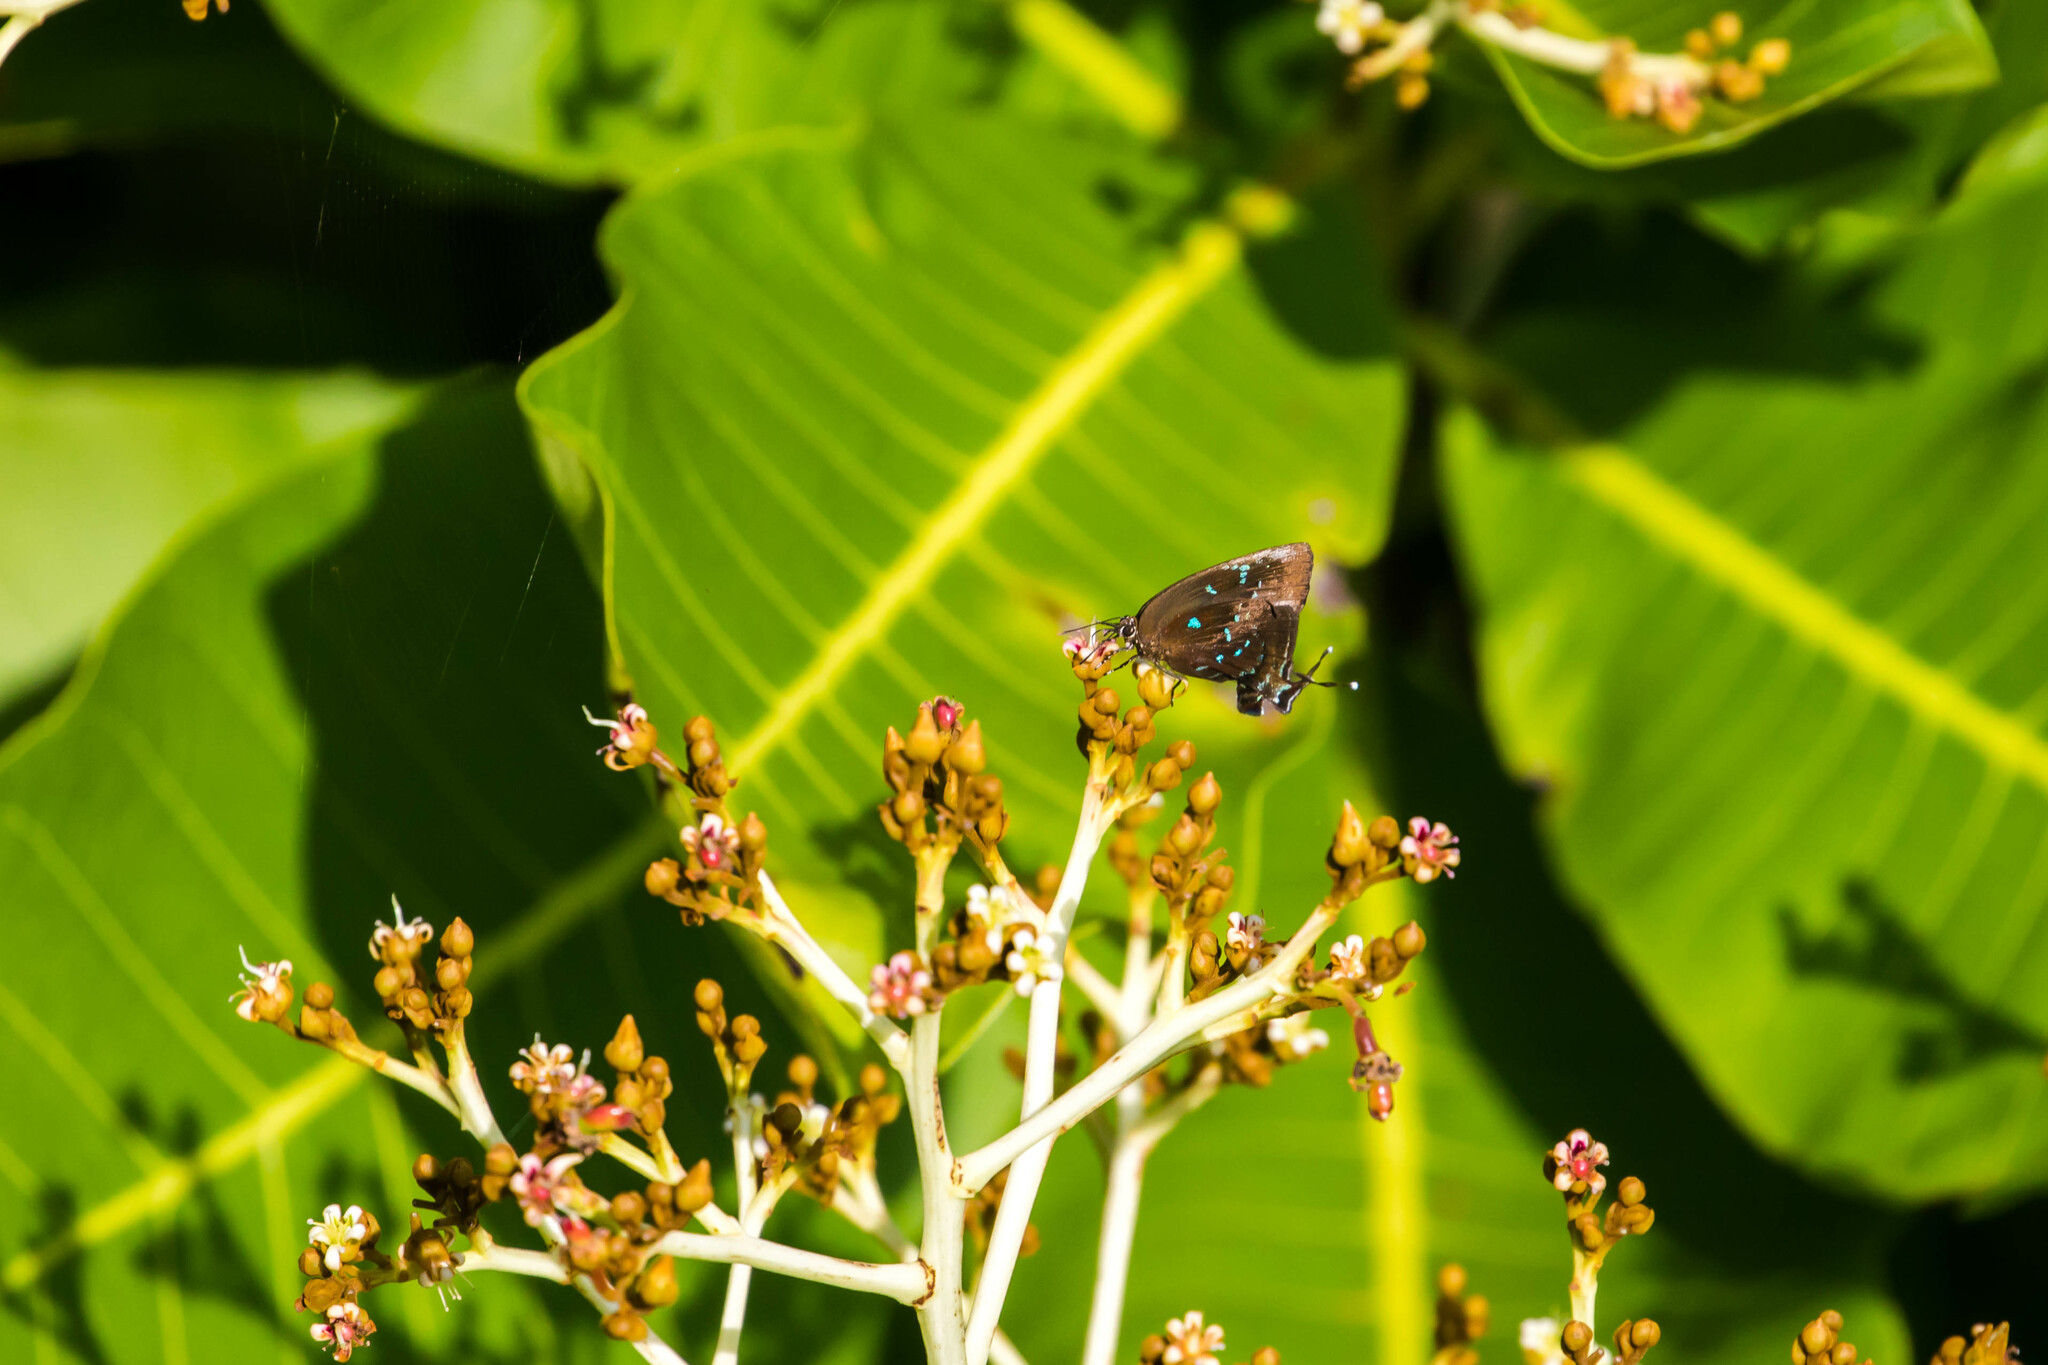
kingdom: Animalia
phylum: Arthropoda
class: Insecta
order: Lepidoptera
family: Lycaenidae
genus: Denivia
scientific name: Denivia
